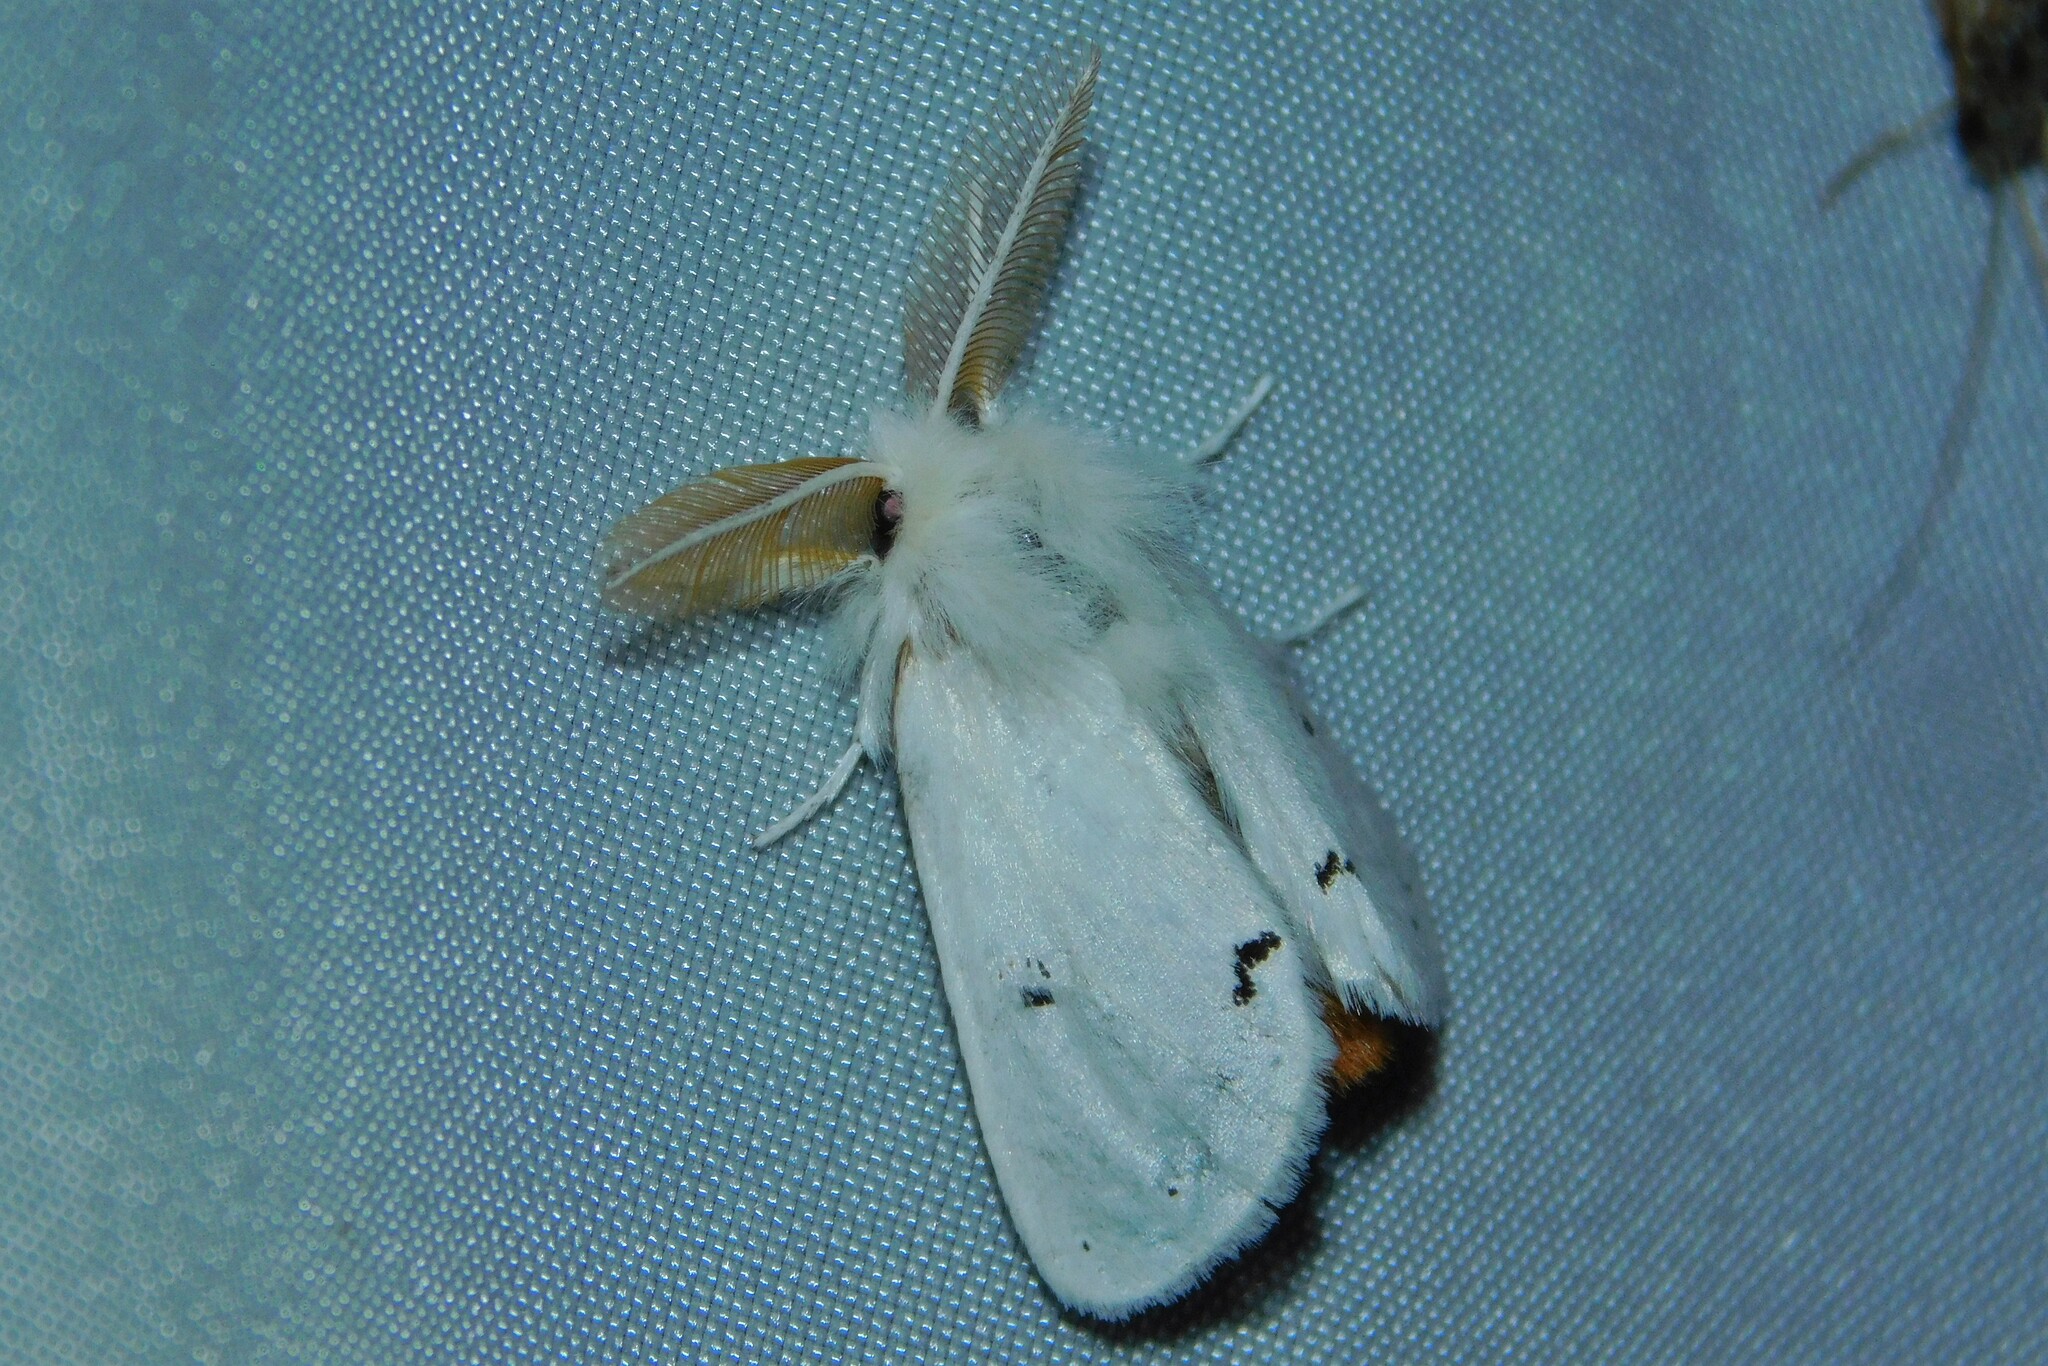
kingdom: Animalia
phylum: Arthropoda
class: Insecta
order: Lepidoptera
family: Erebidae
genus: Euproctis
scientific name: Euproctis chrysorrhoea
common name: Brown-tail
